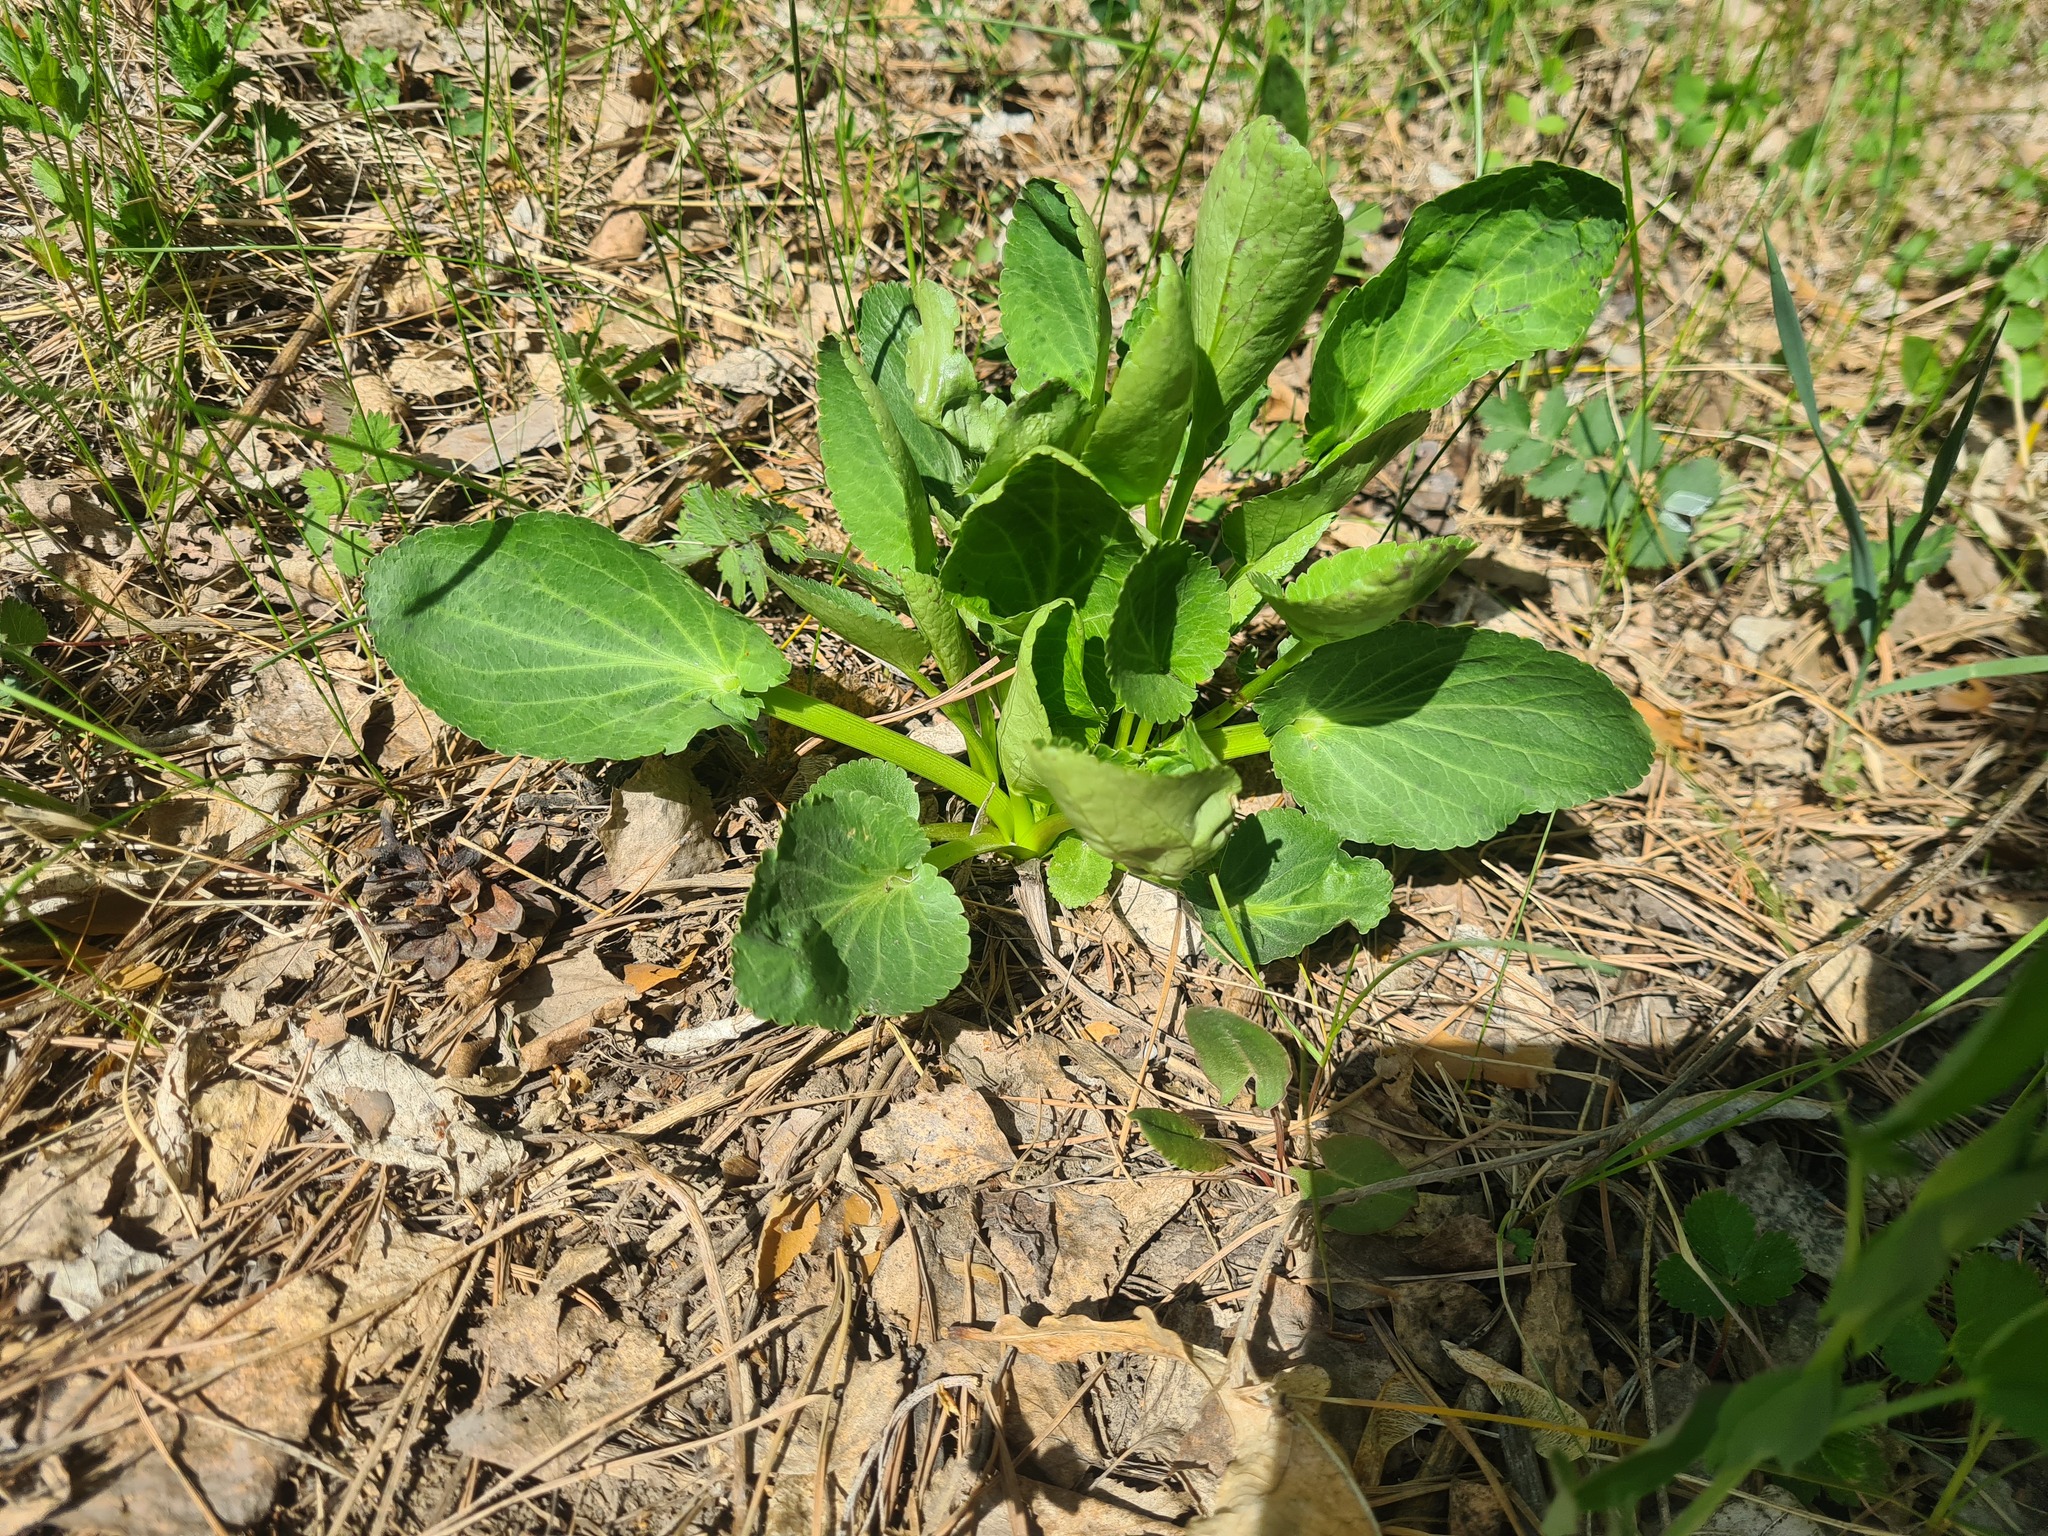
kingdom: Plantae
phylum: Tracheophyta
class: Magnoliopsida
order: Apiales
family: Apiaceae
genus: Eryngium
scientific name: Eryngium planum
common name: Blue eryngo
